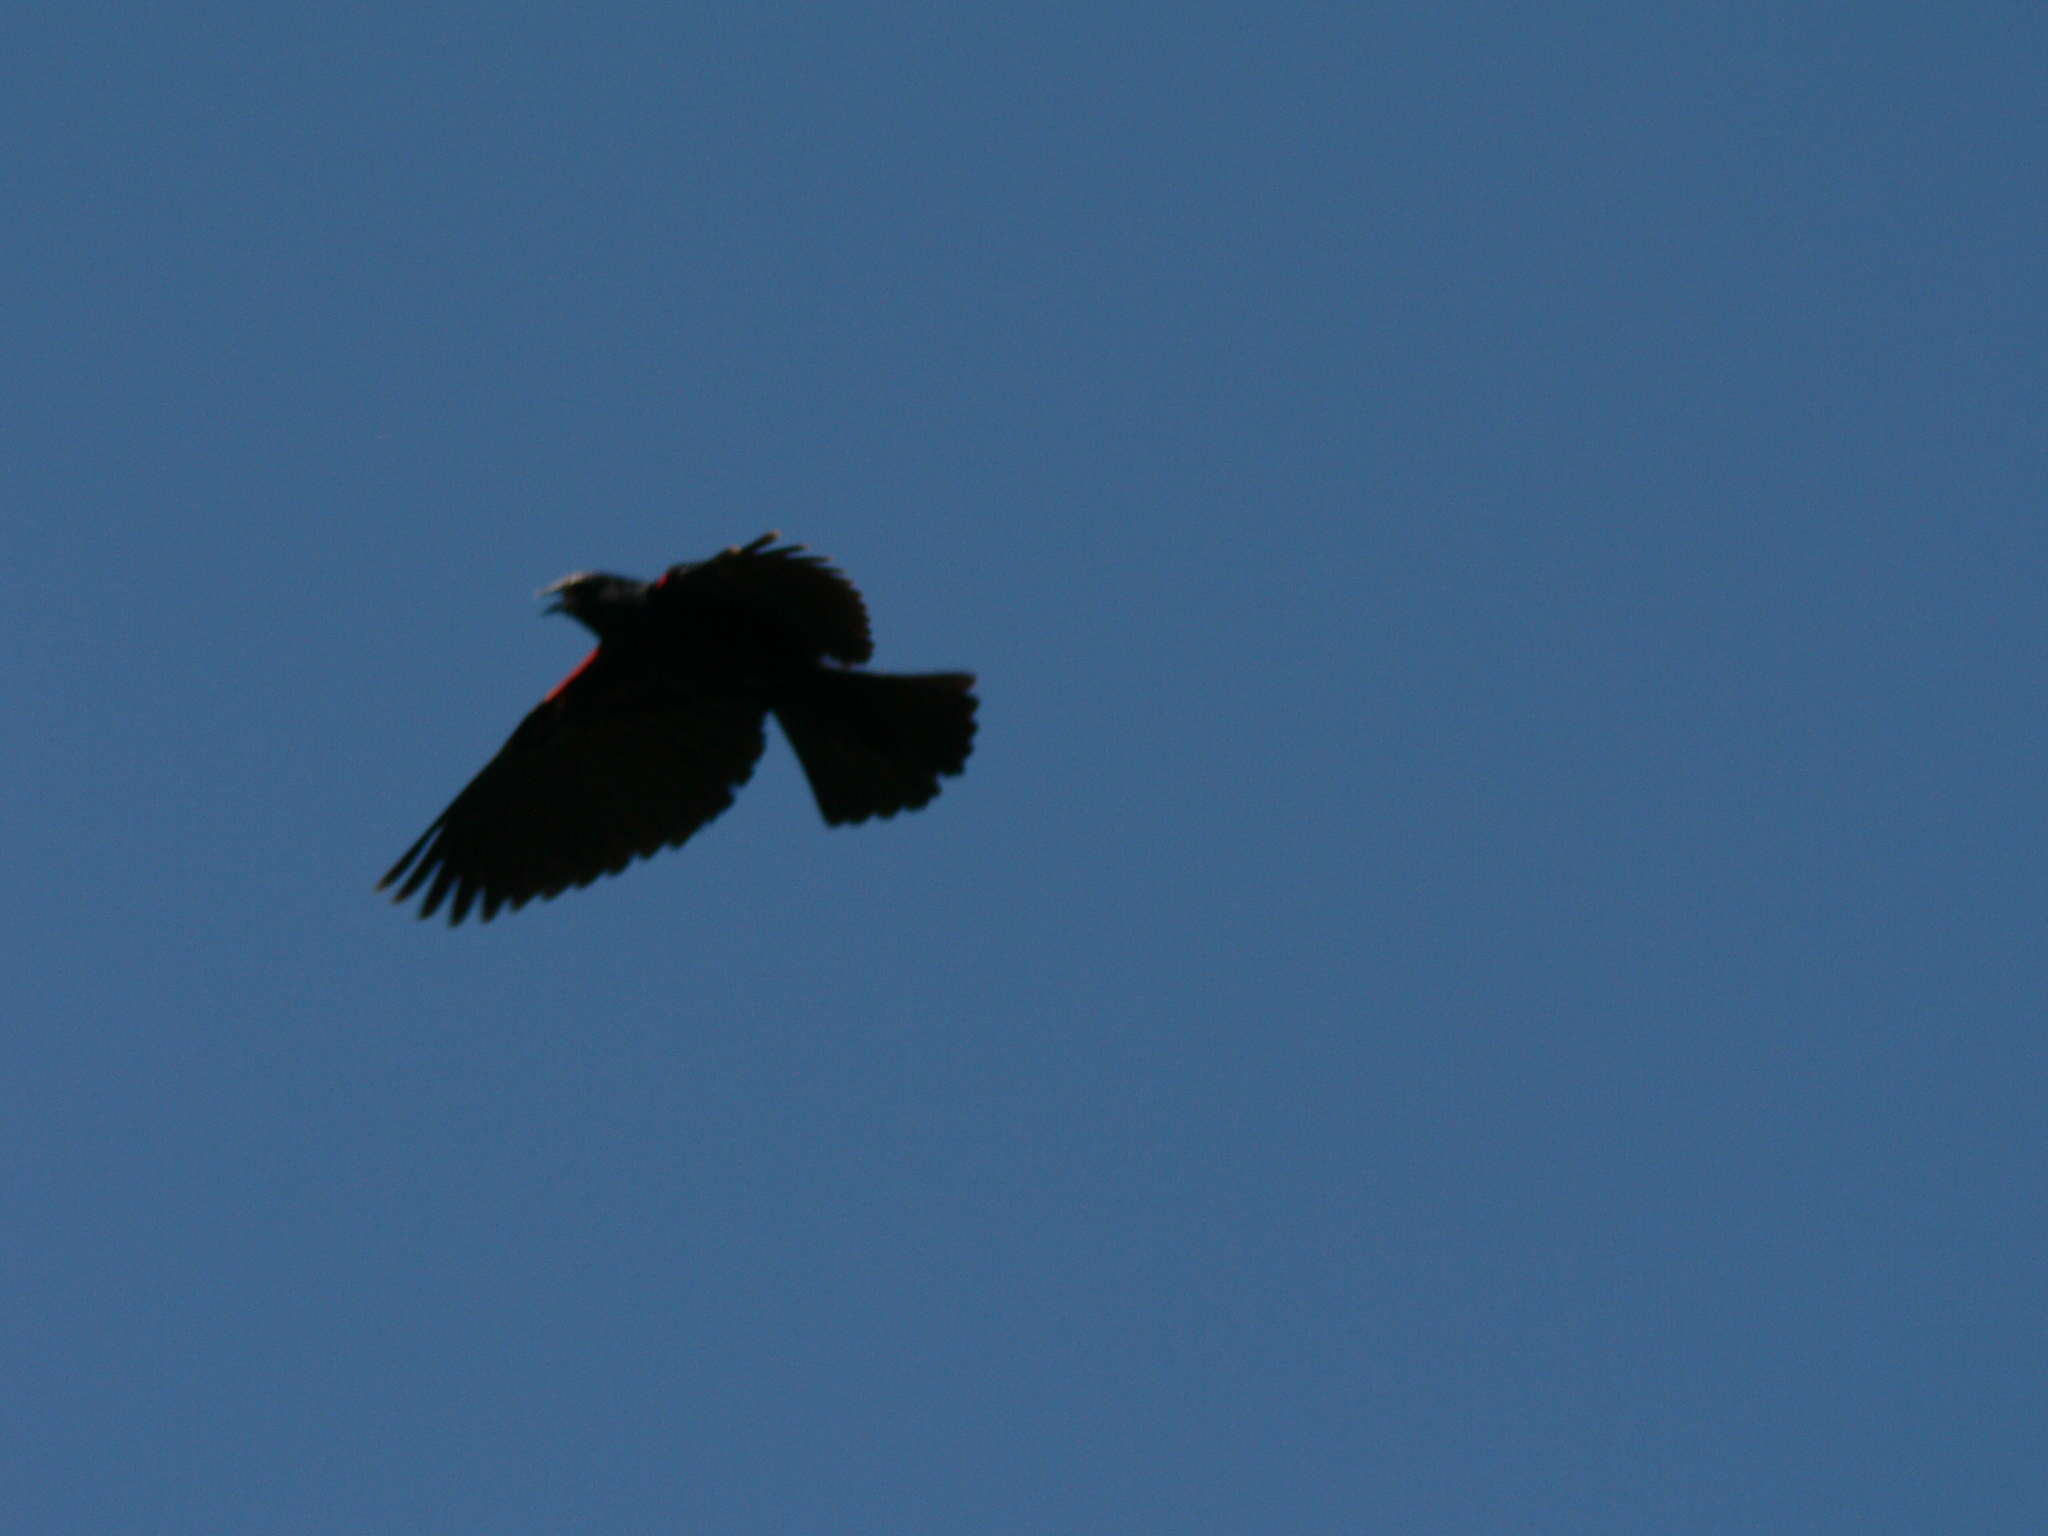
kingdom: Animalia
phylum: Chordata
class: Aves
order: Passeriformes
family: Icteridae
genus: Agelaius
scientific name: Agelaius phoeniceus
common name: Red-winged blackbird
